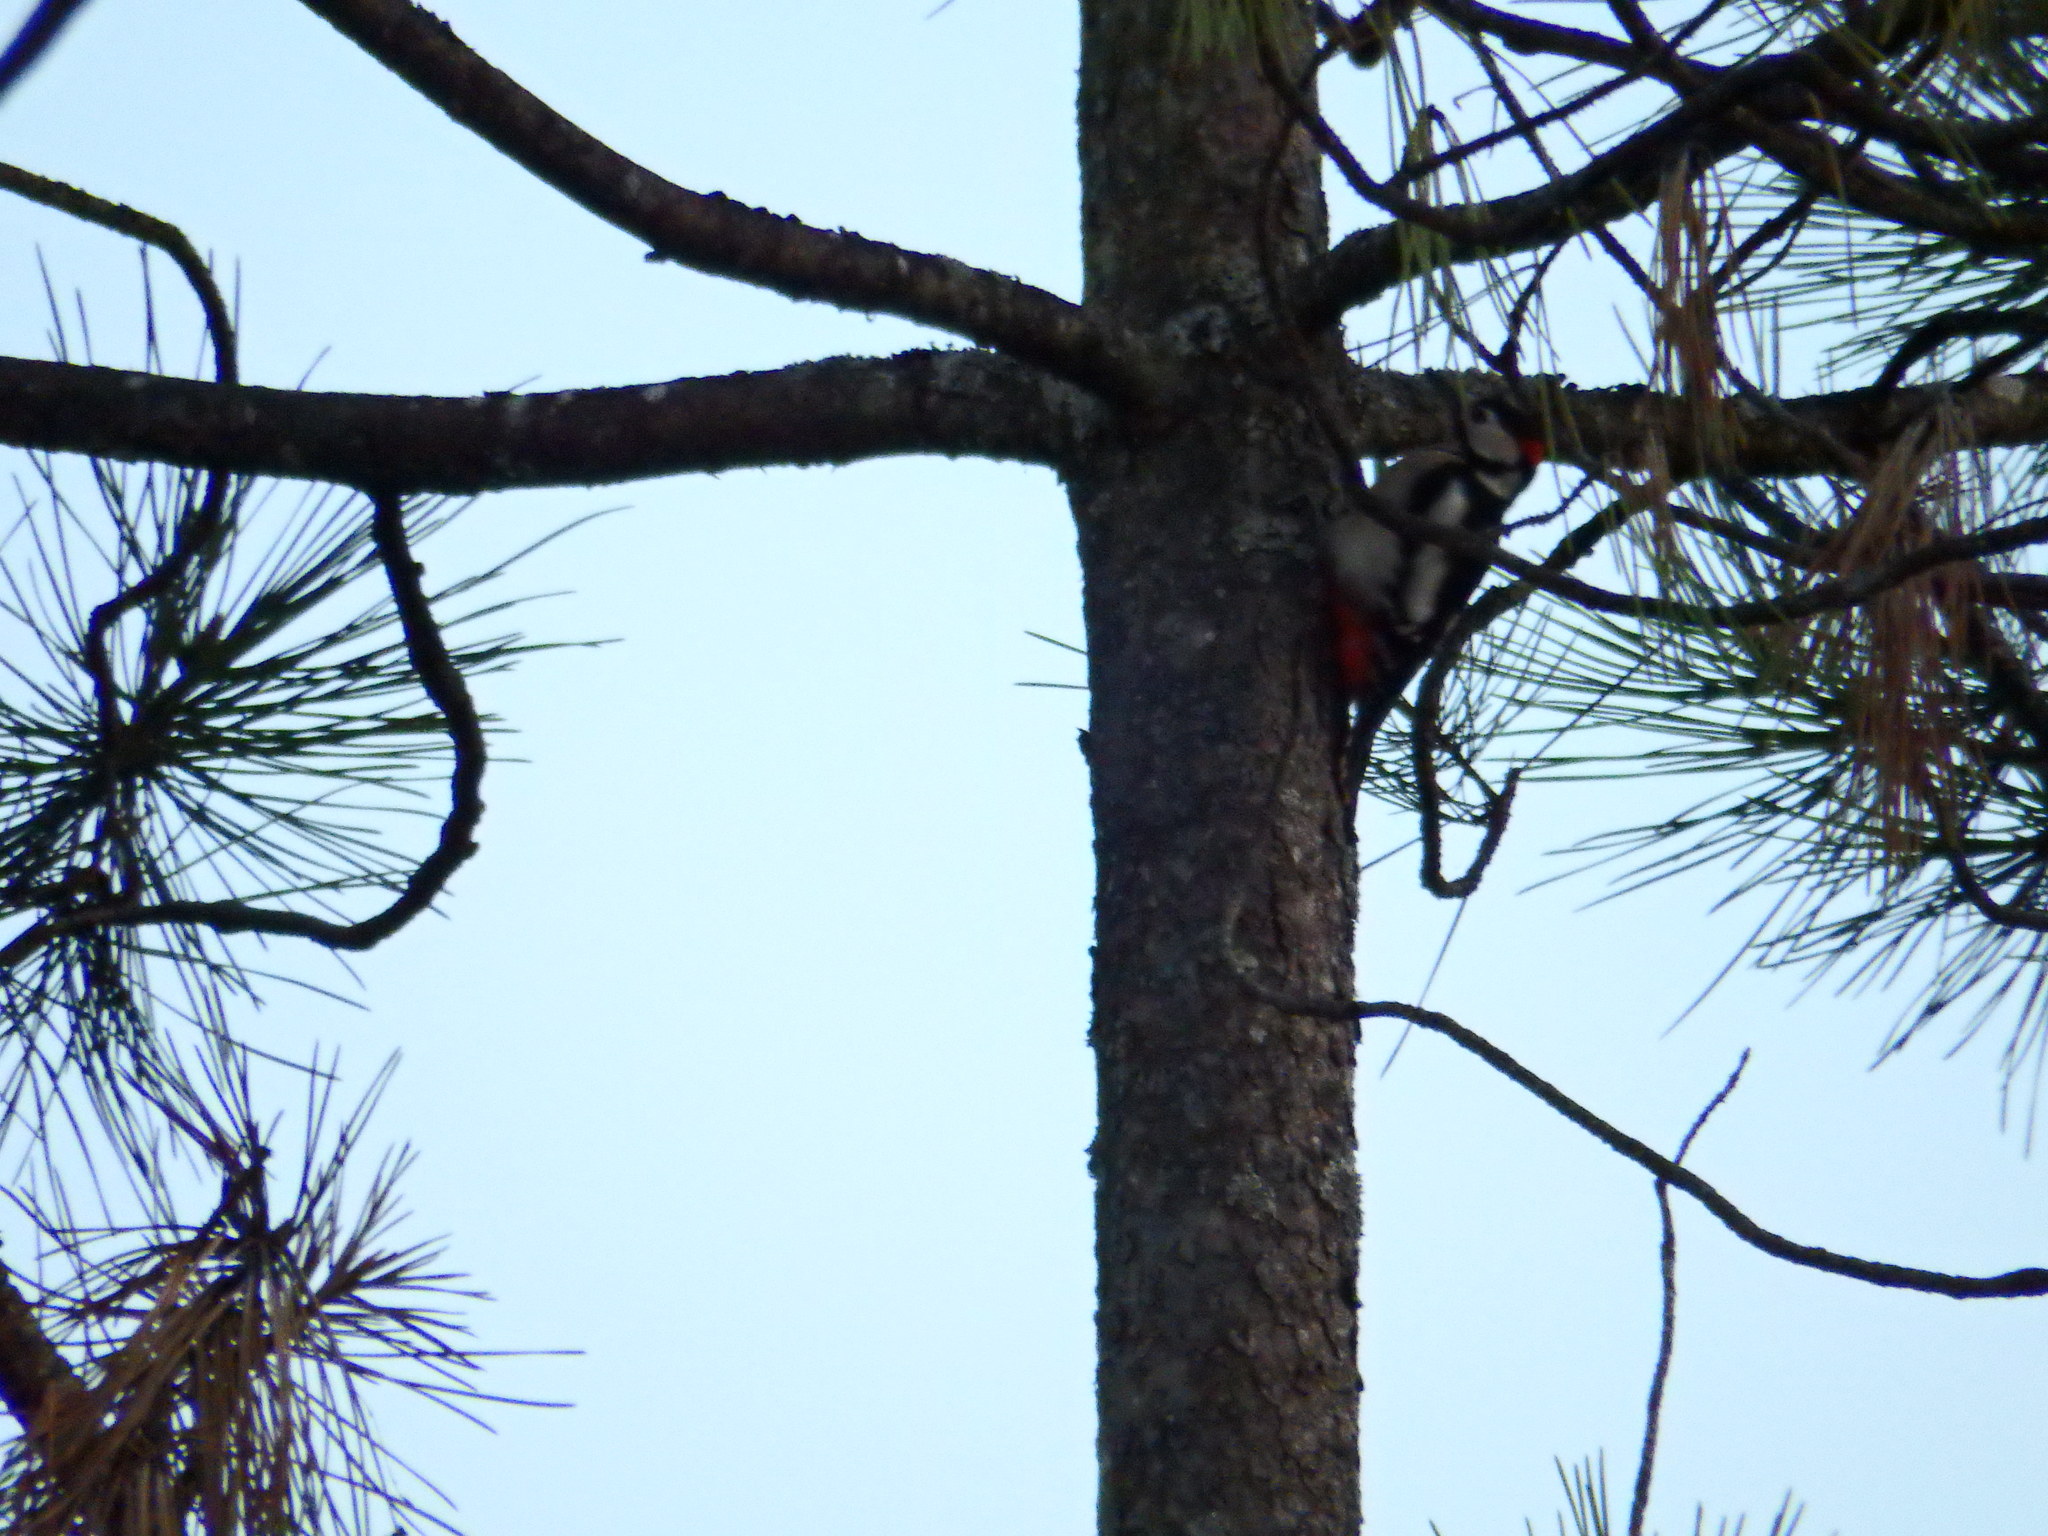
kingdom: Animalia
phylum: Chordata
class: Aves
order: Piciformes
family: Picidae
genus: Dendrocopos
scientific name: Dendrocopos major
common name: Great spotted woodpecker
